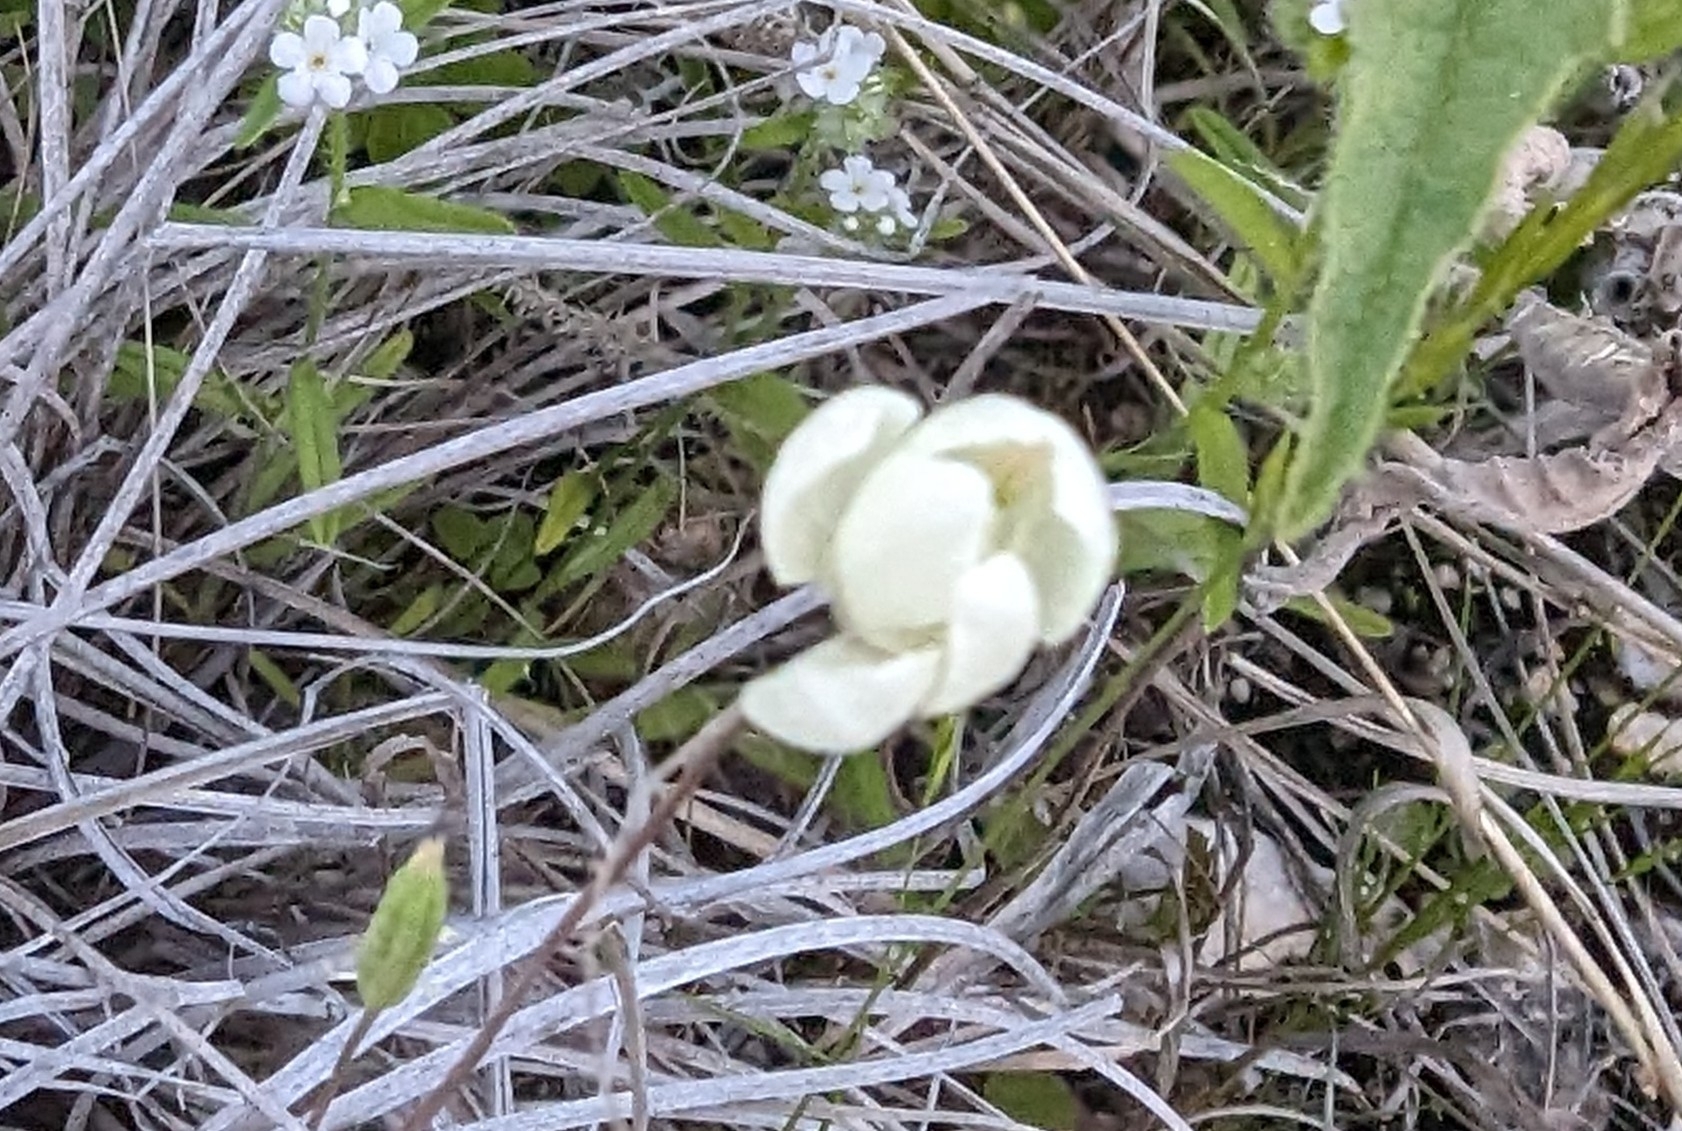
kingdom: Plantae
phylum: Tracheophyta
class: Magnoliopsida
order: Ranunculales
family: Papaveraceae
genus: Platystemon
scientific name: Platystemon californicus
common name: Cream-cups
